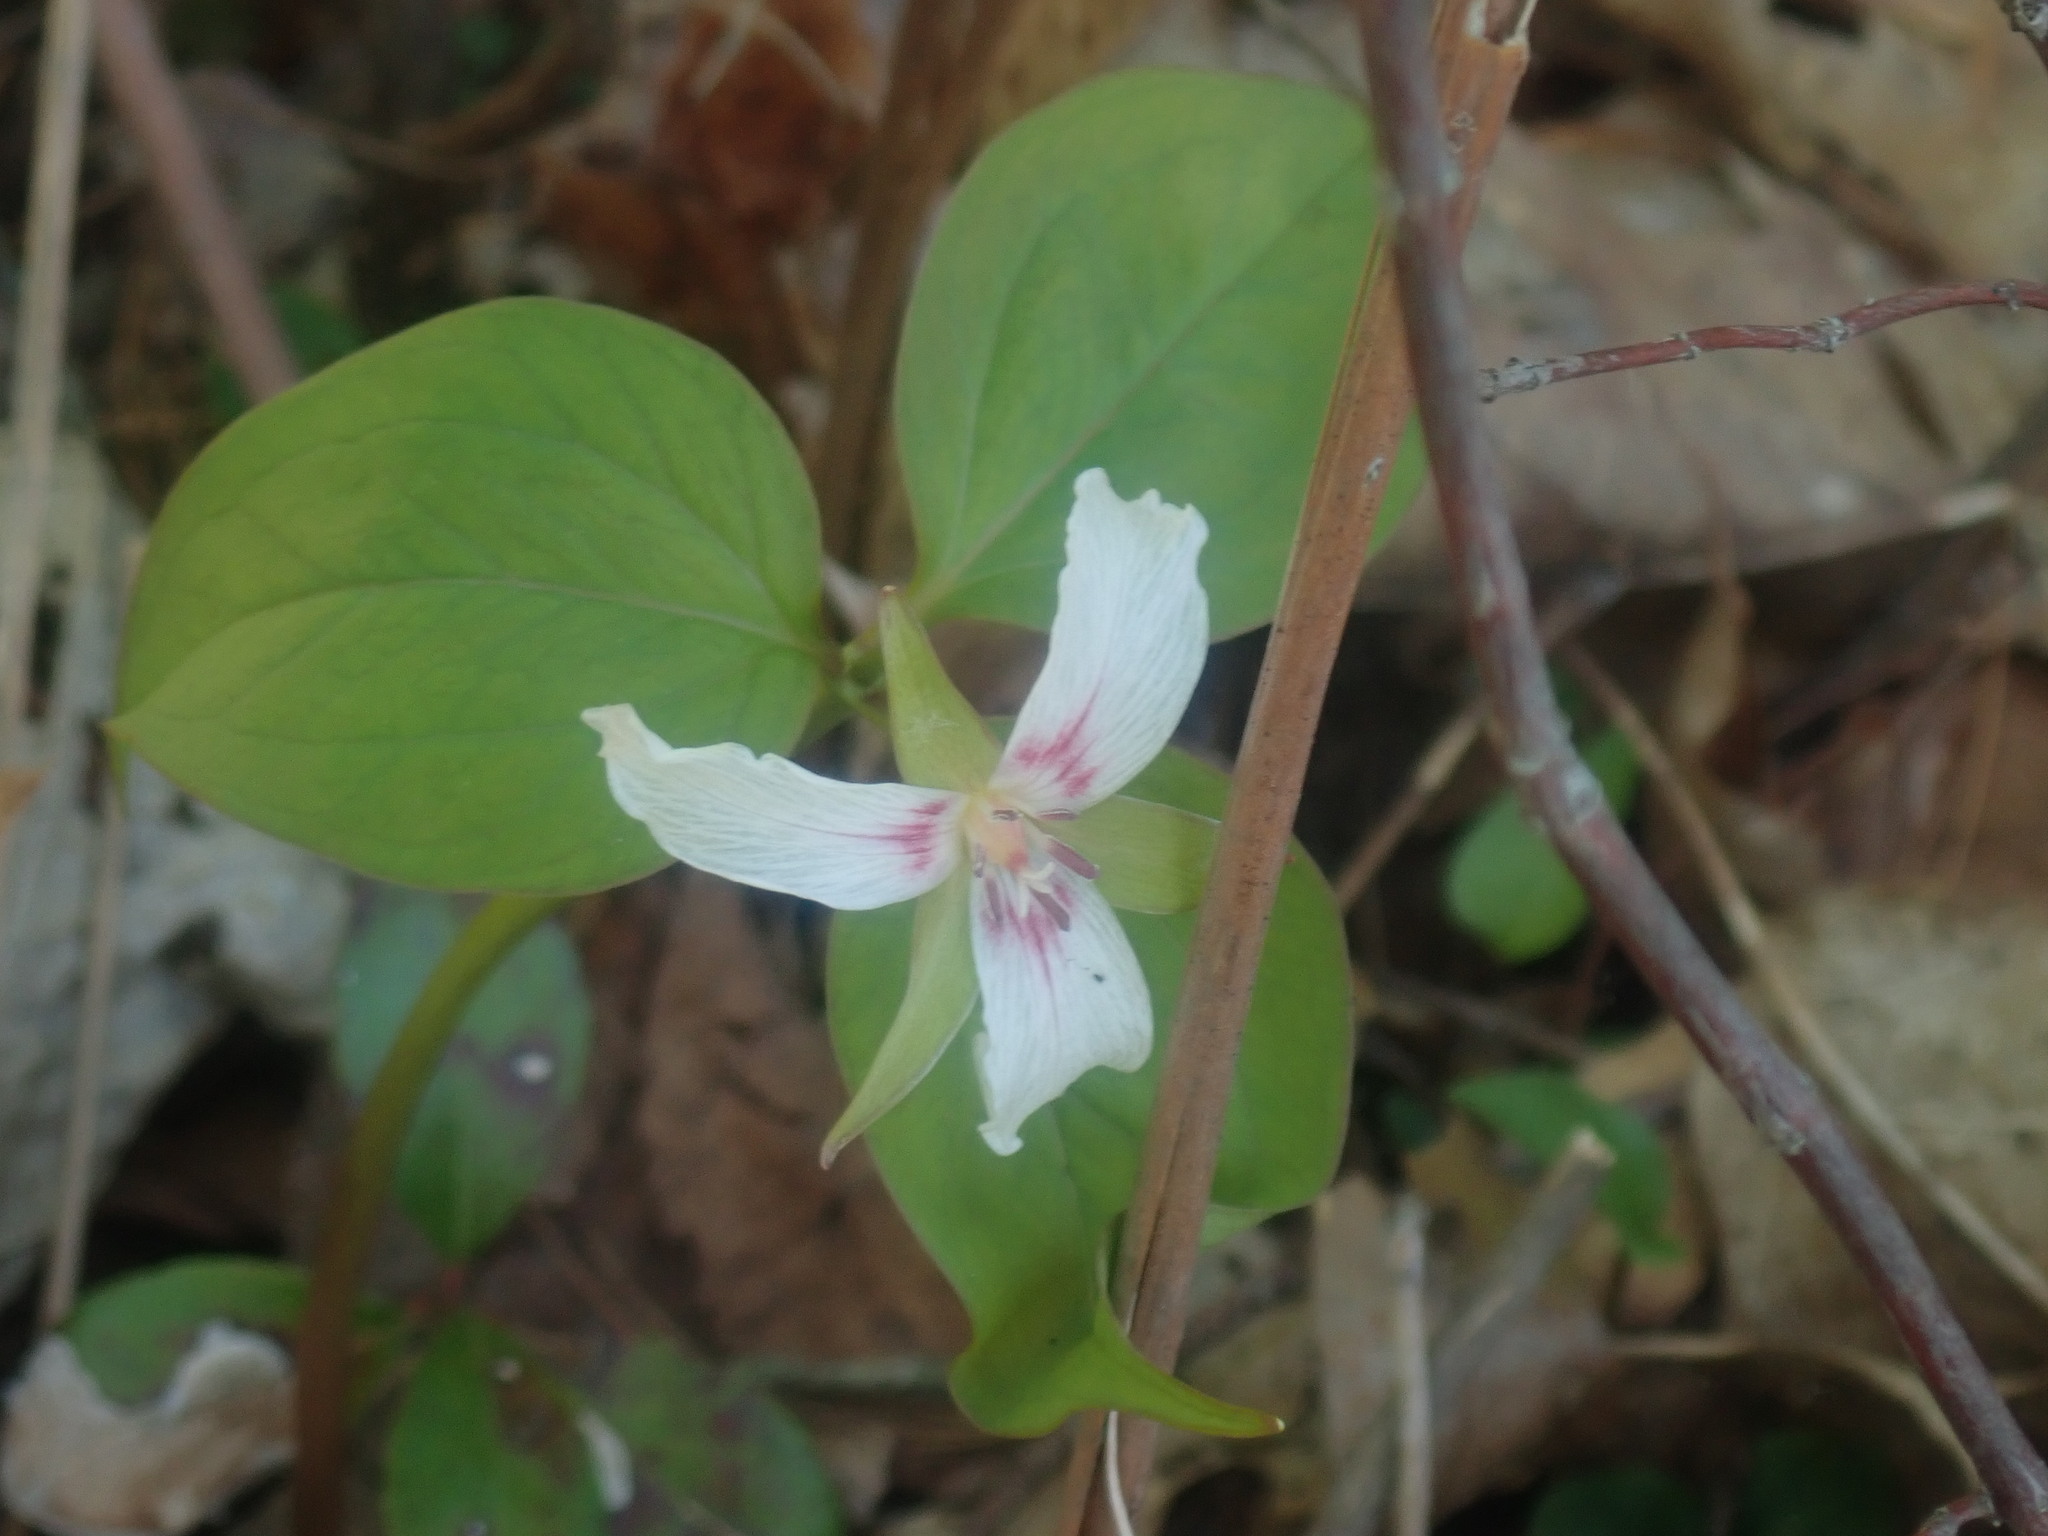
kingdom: Plantae
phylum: Tracheophyta
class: Liliopsida
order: Liliales
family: Melanthiaceae
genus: Trillium
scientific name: Trillium undulatum
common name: Paint trillium
